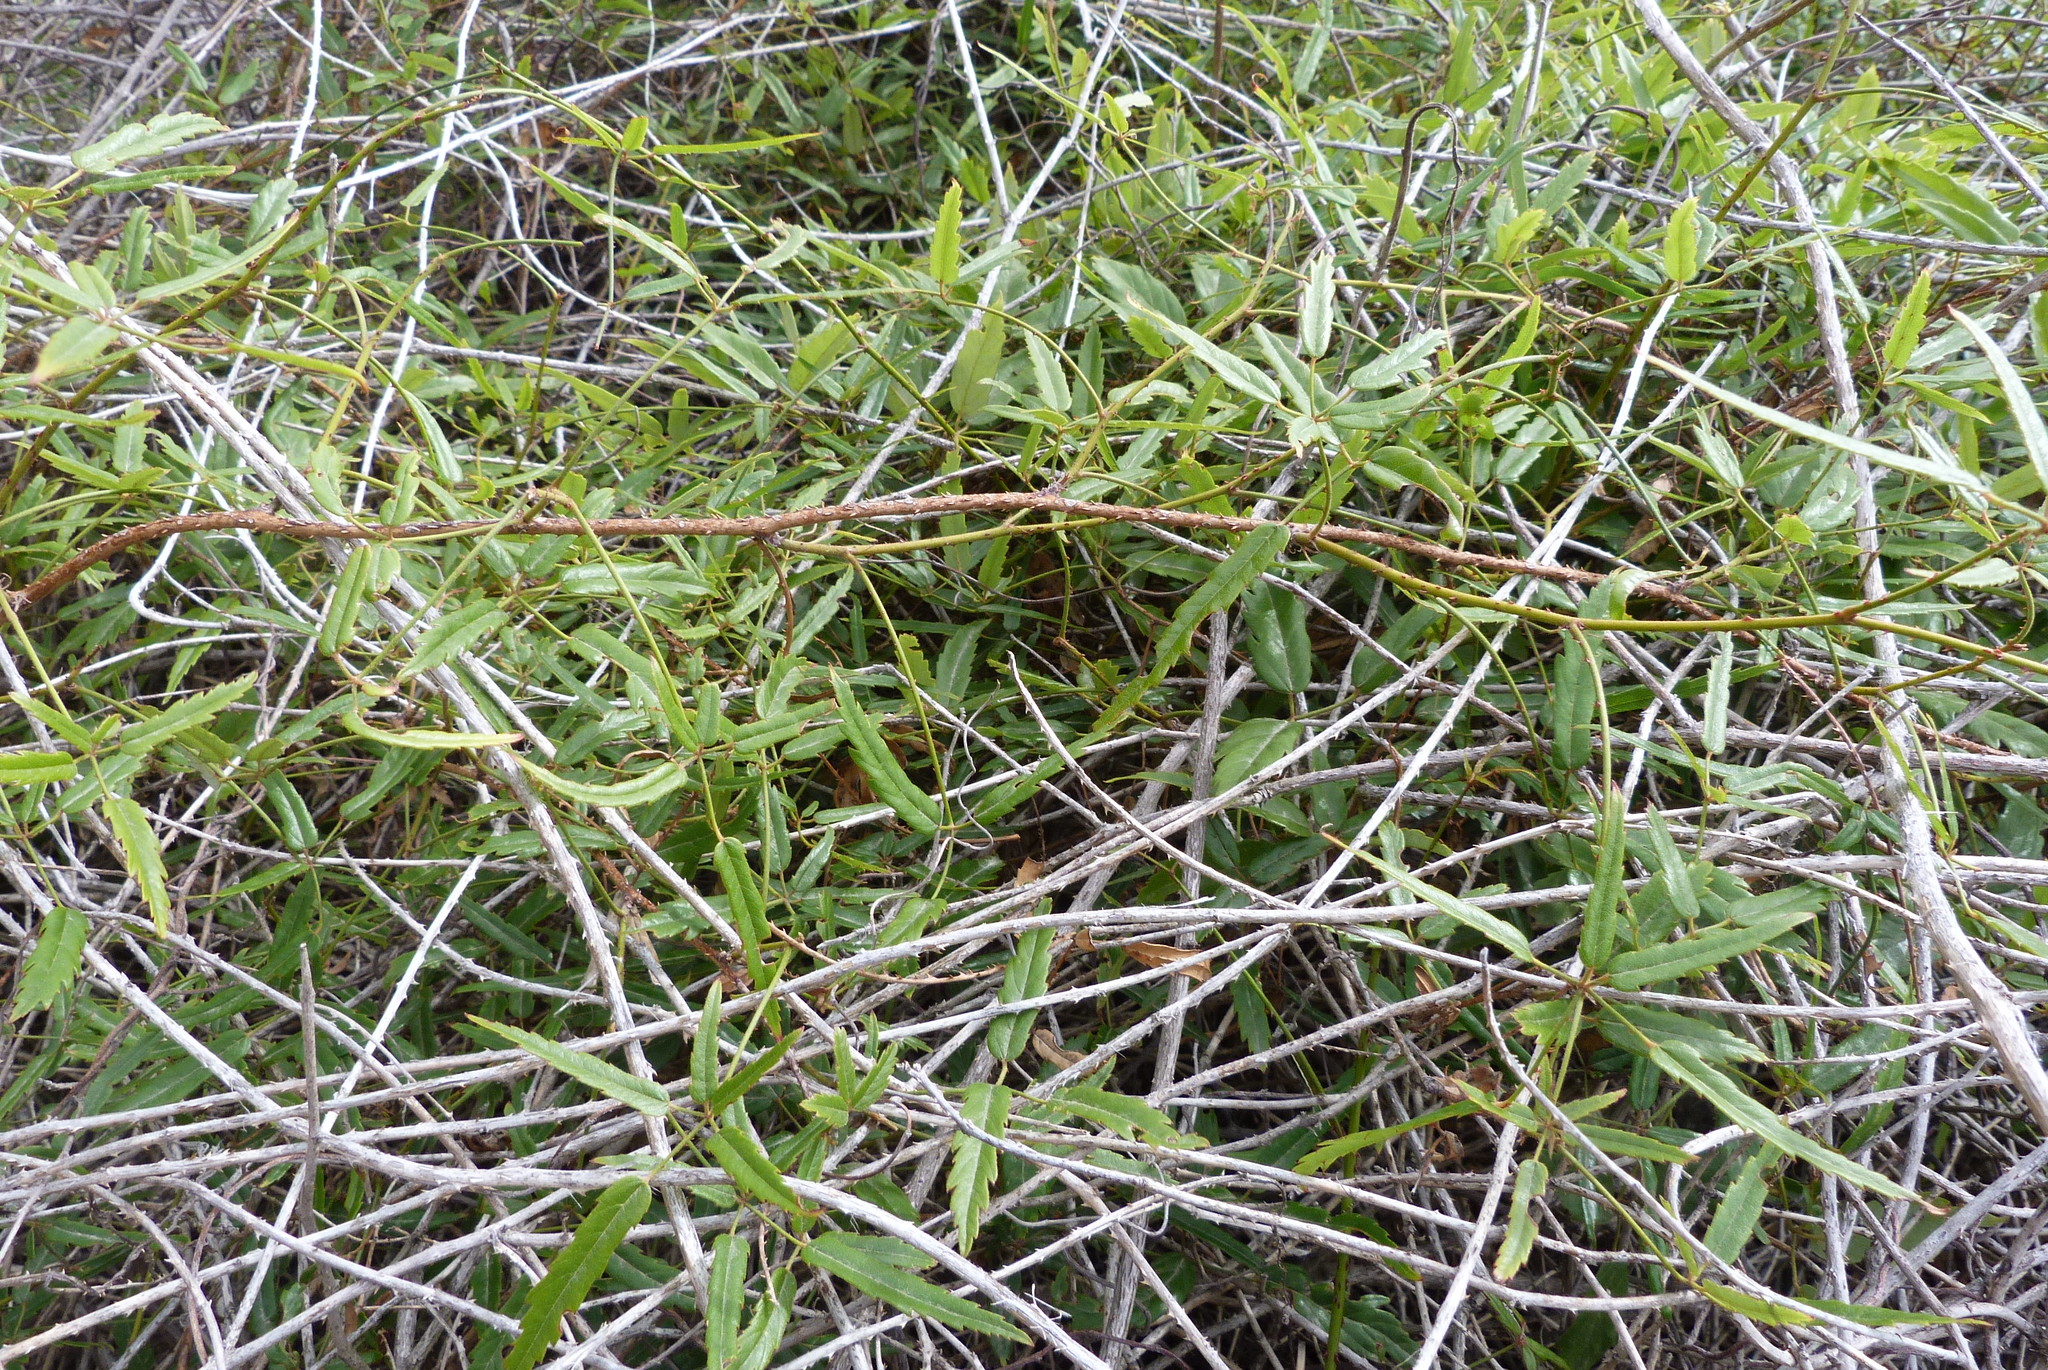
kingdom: Plantae
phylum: Tracheophyta
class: Magnoliopsida
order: Rosales
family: Rosaceae
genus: Rubus
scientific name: Rubus schmidelioides
